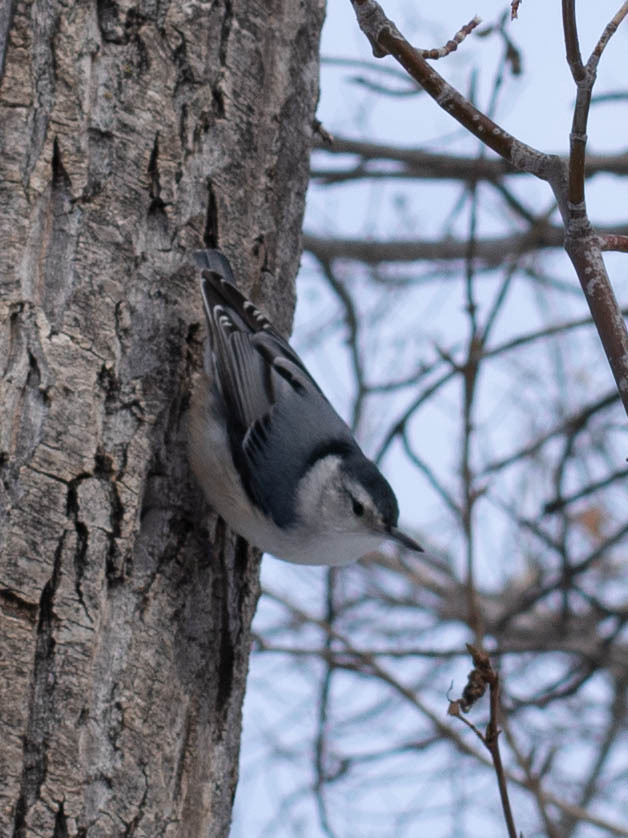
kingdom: Animalia
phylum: Chordata
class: Aves
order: Passeriformes
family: Sittidae
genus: Sitta
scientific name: Sitta carolinensis
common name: White-breasted nuthatch
